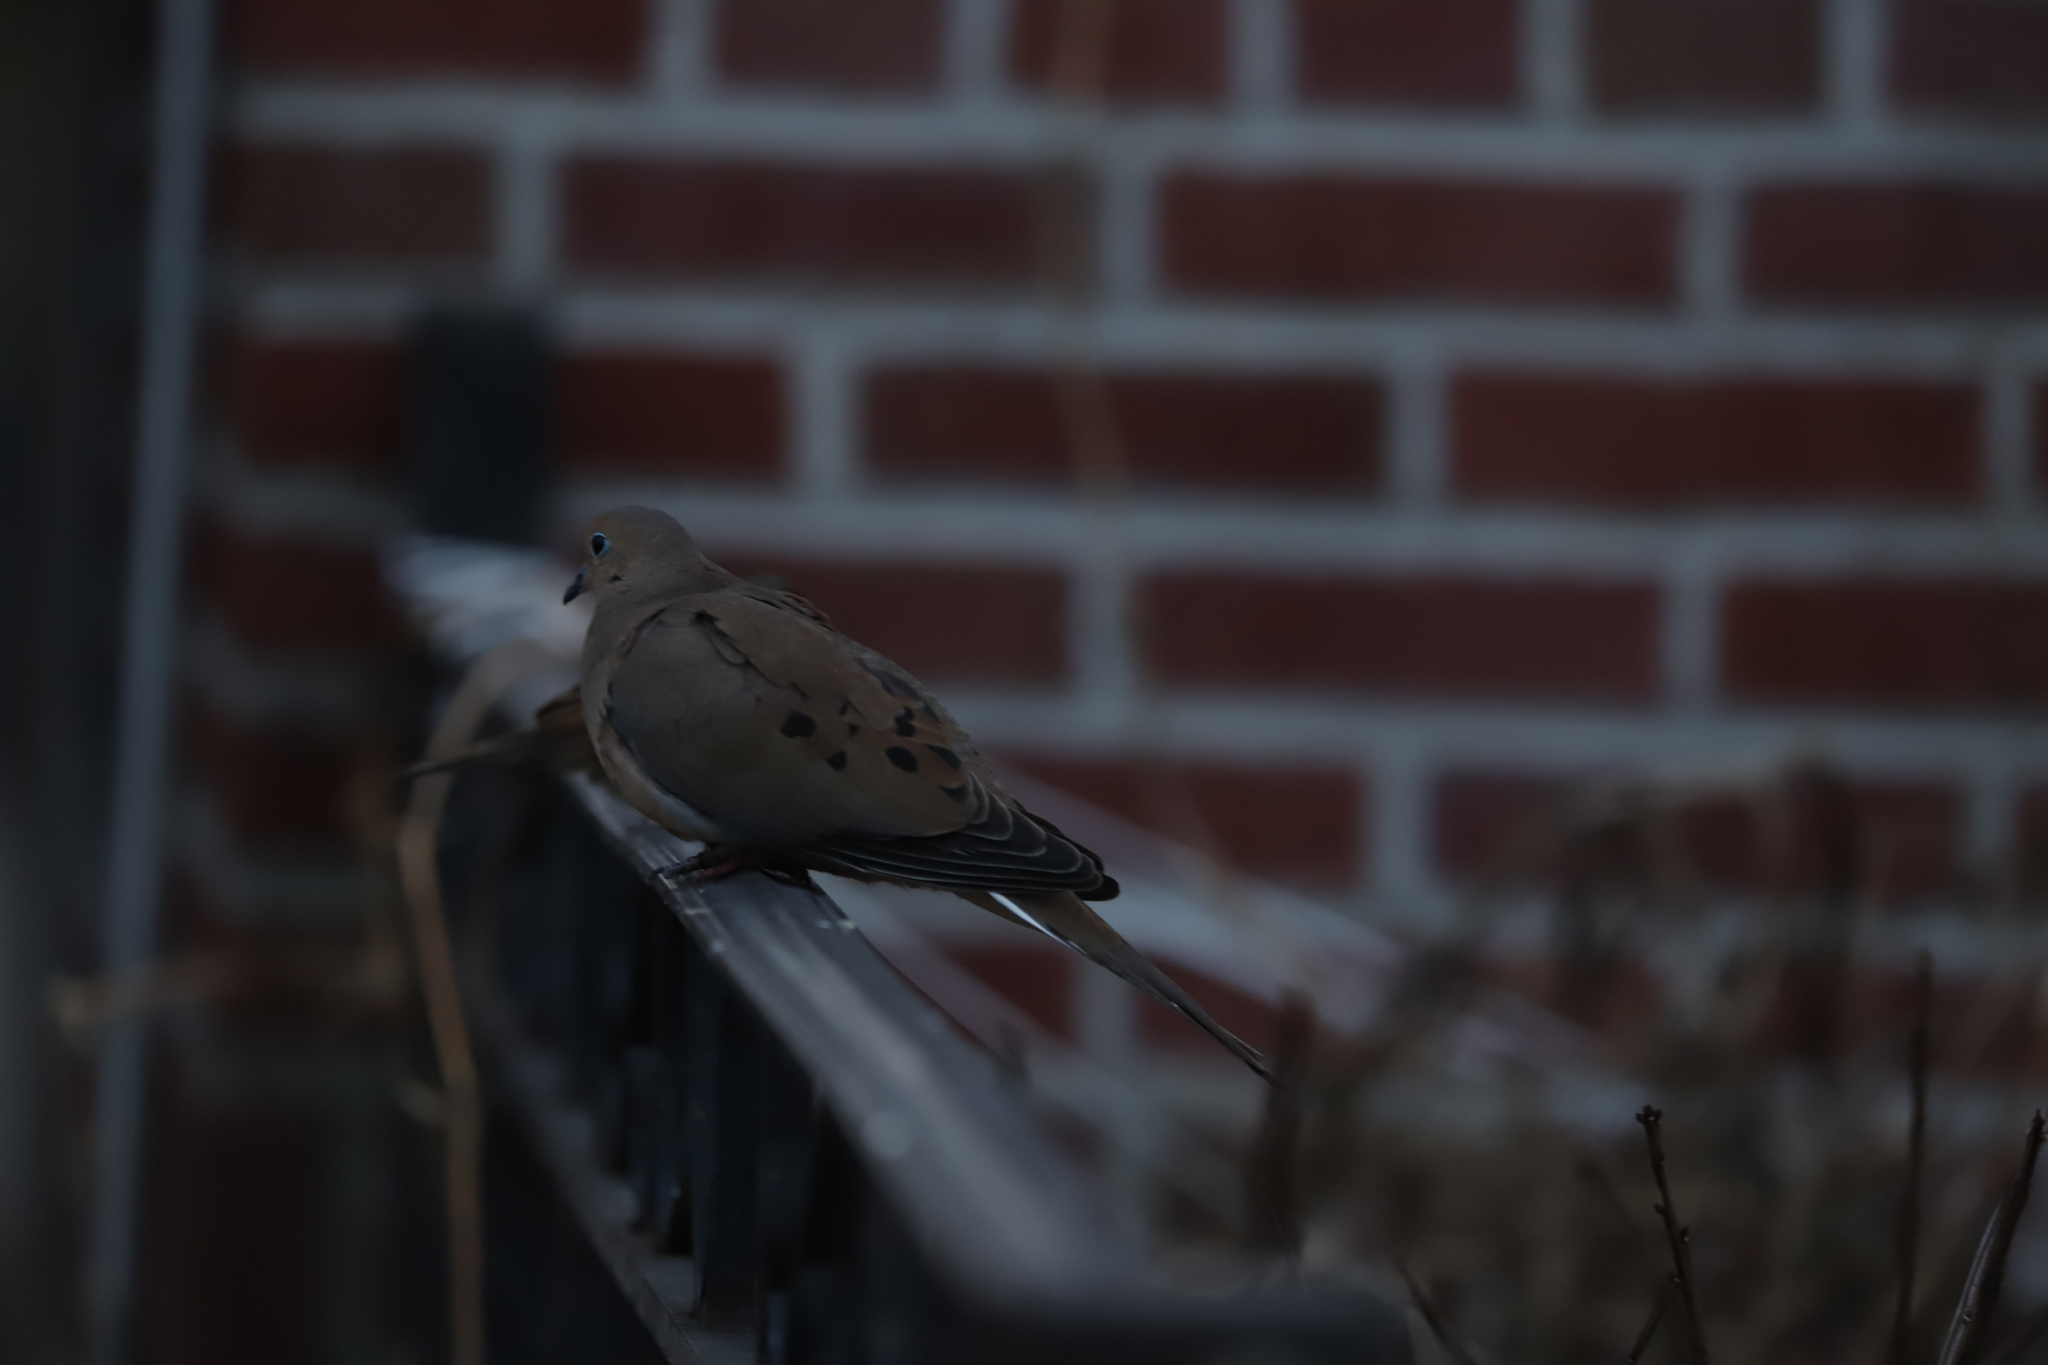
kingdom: Animalia
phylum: Chordata
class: Aves
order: Columbiformes
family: Columbidae
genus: Zenaida
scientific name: Zenaida macroura
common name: Mourning dove
